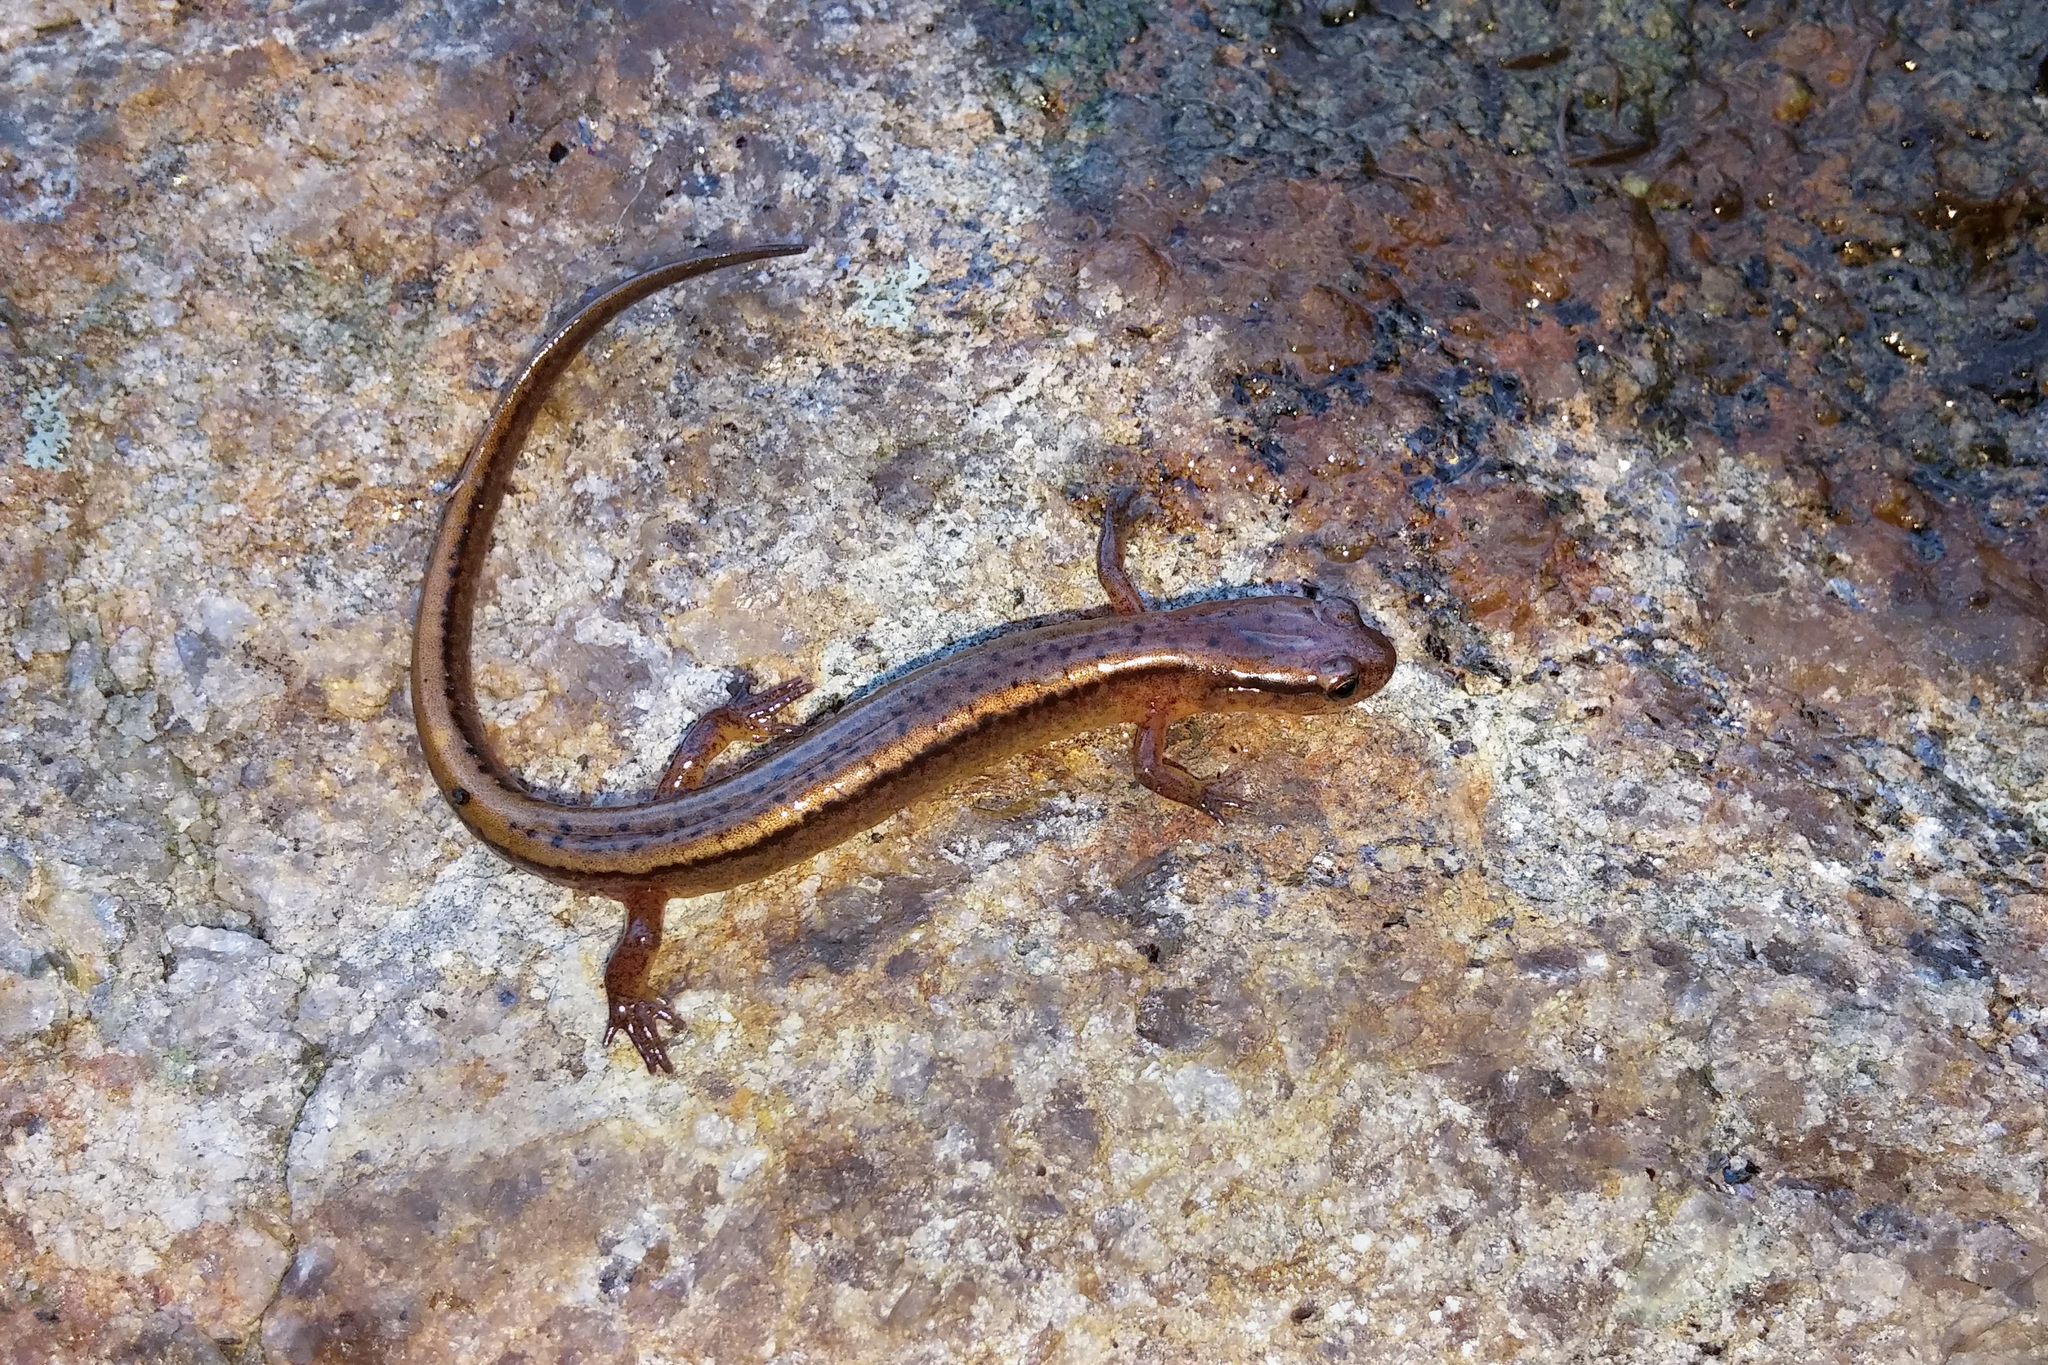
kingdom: Animalia
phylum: Chordata
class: Amphibia
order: Caudata
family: Plethodontidae
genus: Eurycea
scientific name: Eurycea bislineata
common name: Northern two-lined salamander
